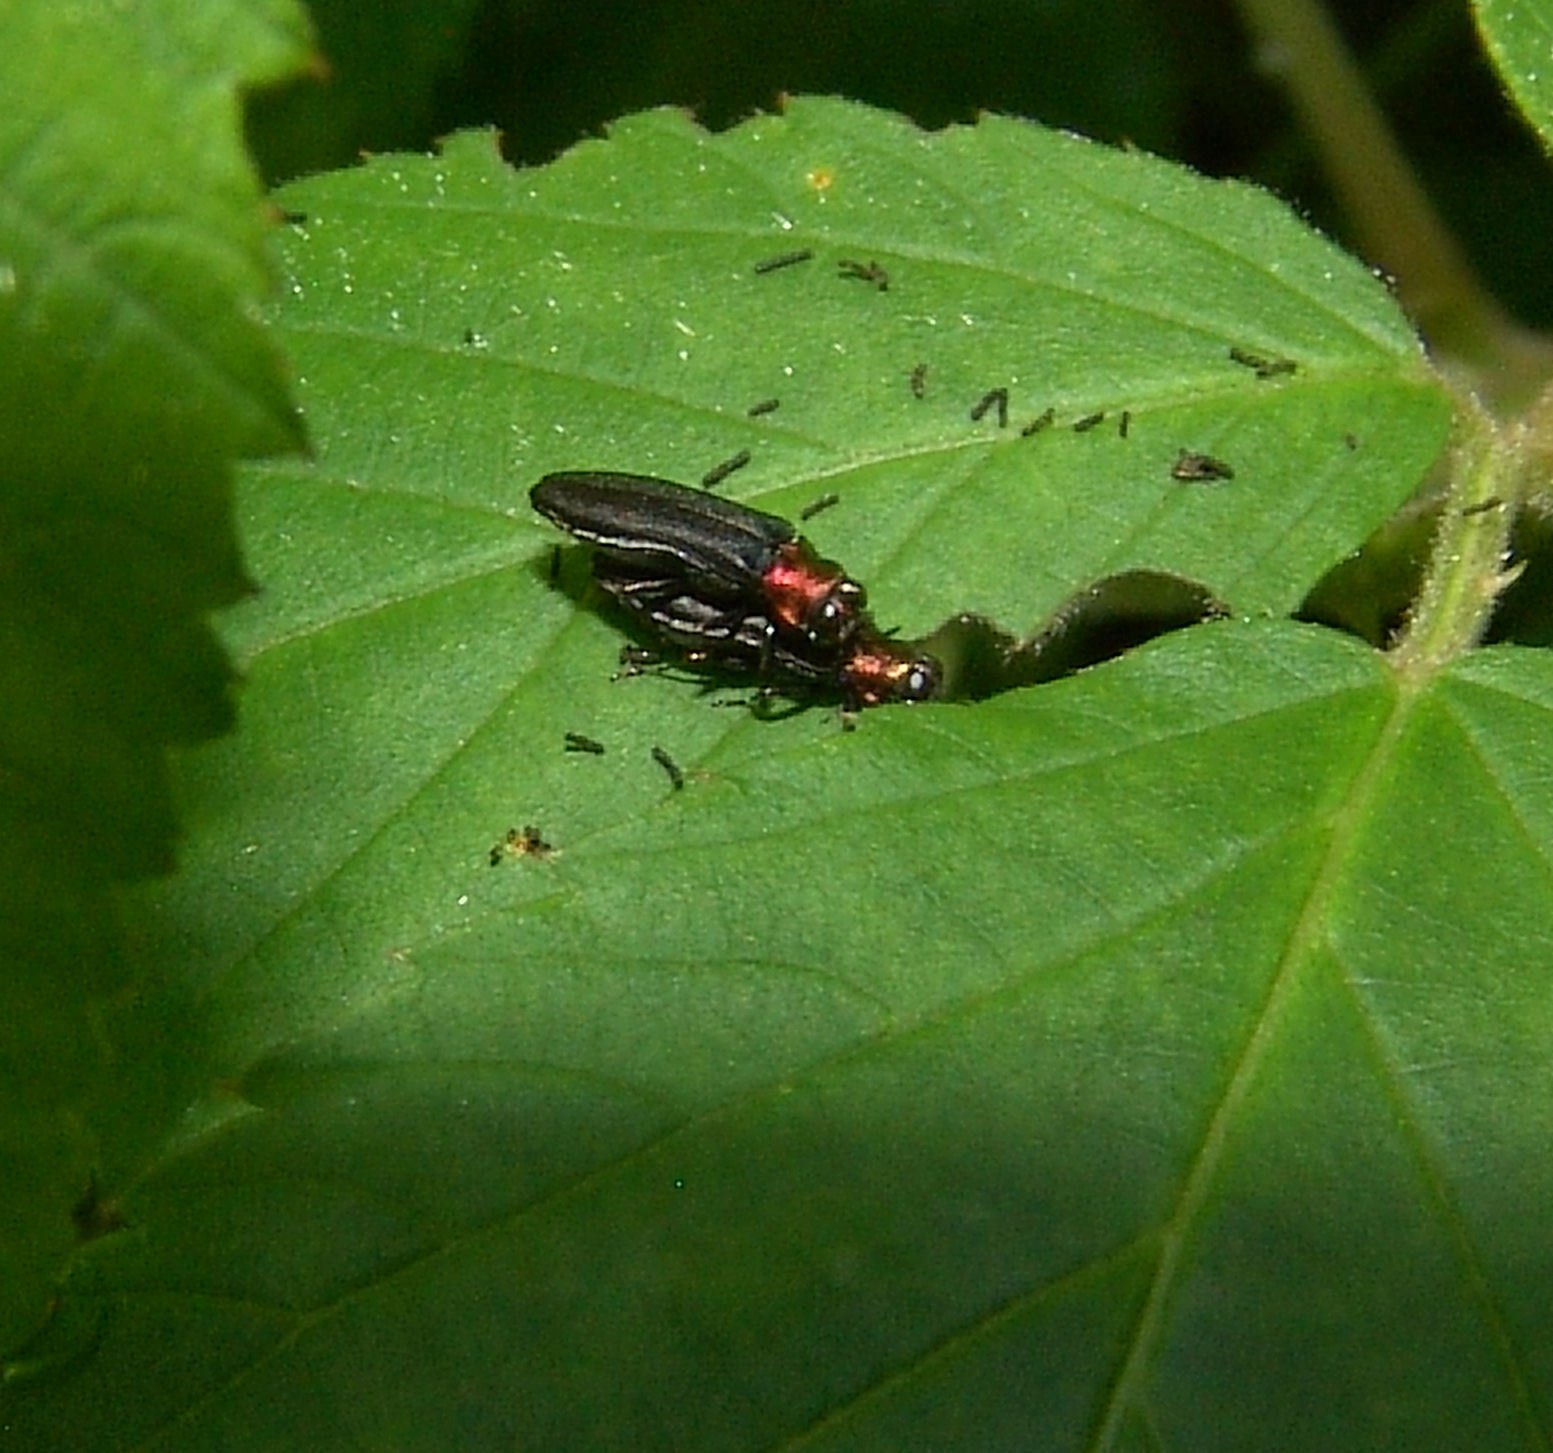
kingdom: Animalia
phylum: Arthropoda
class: Insecta
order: Coleoptera
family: Buprestidae
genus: Agrilus
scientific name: Agrilus ruficollis
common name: Red-necked cane borer beetle
